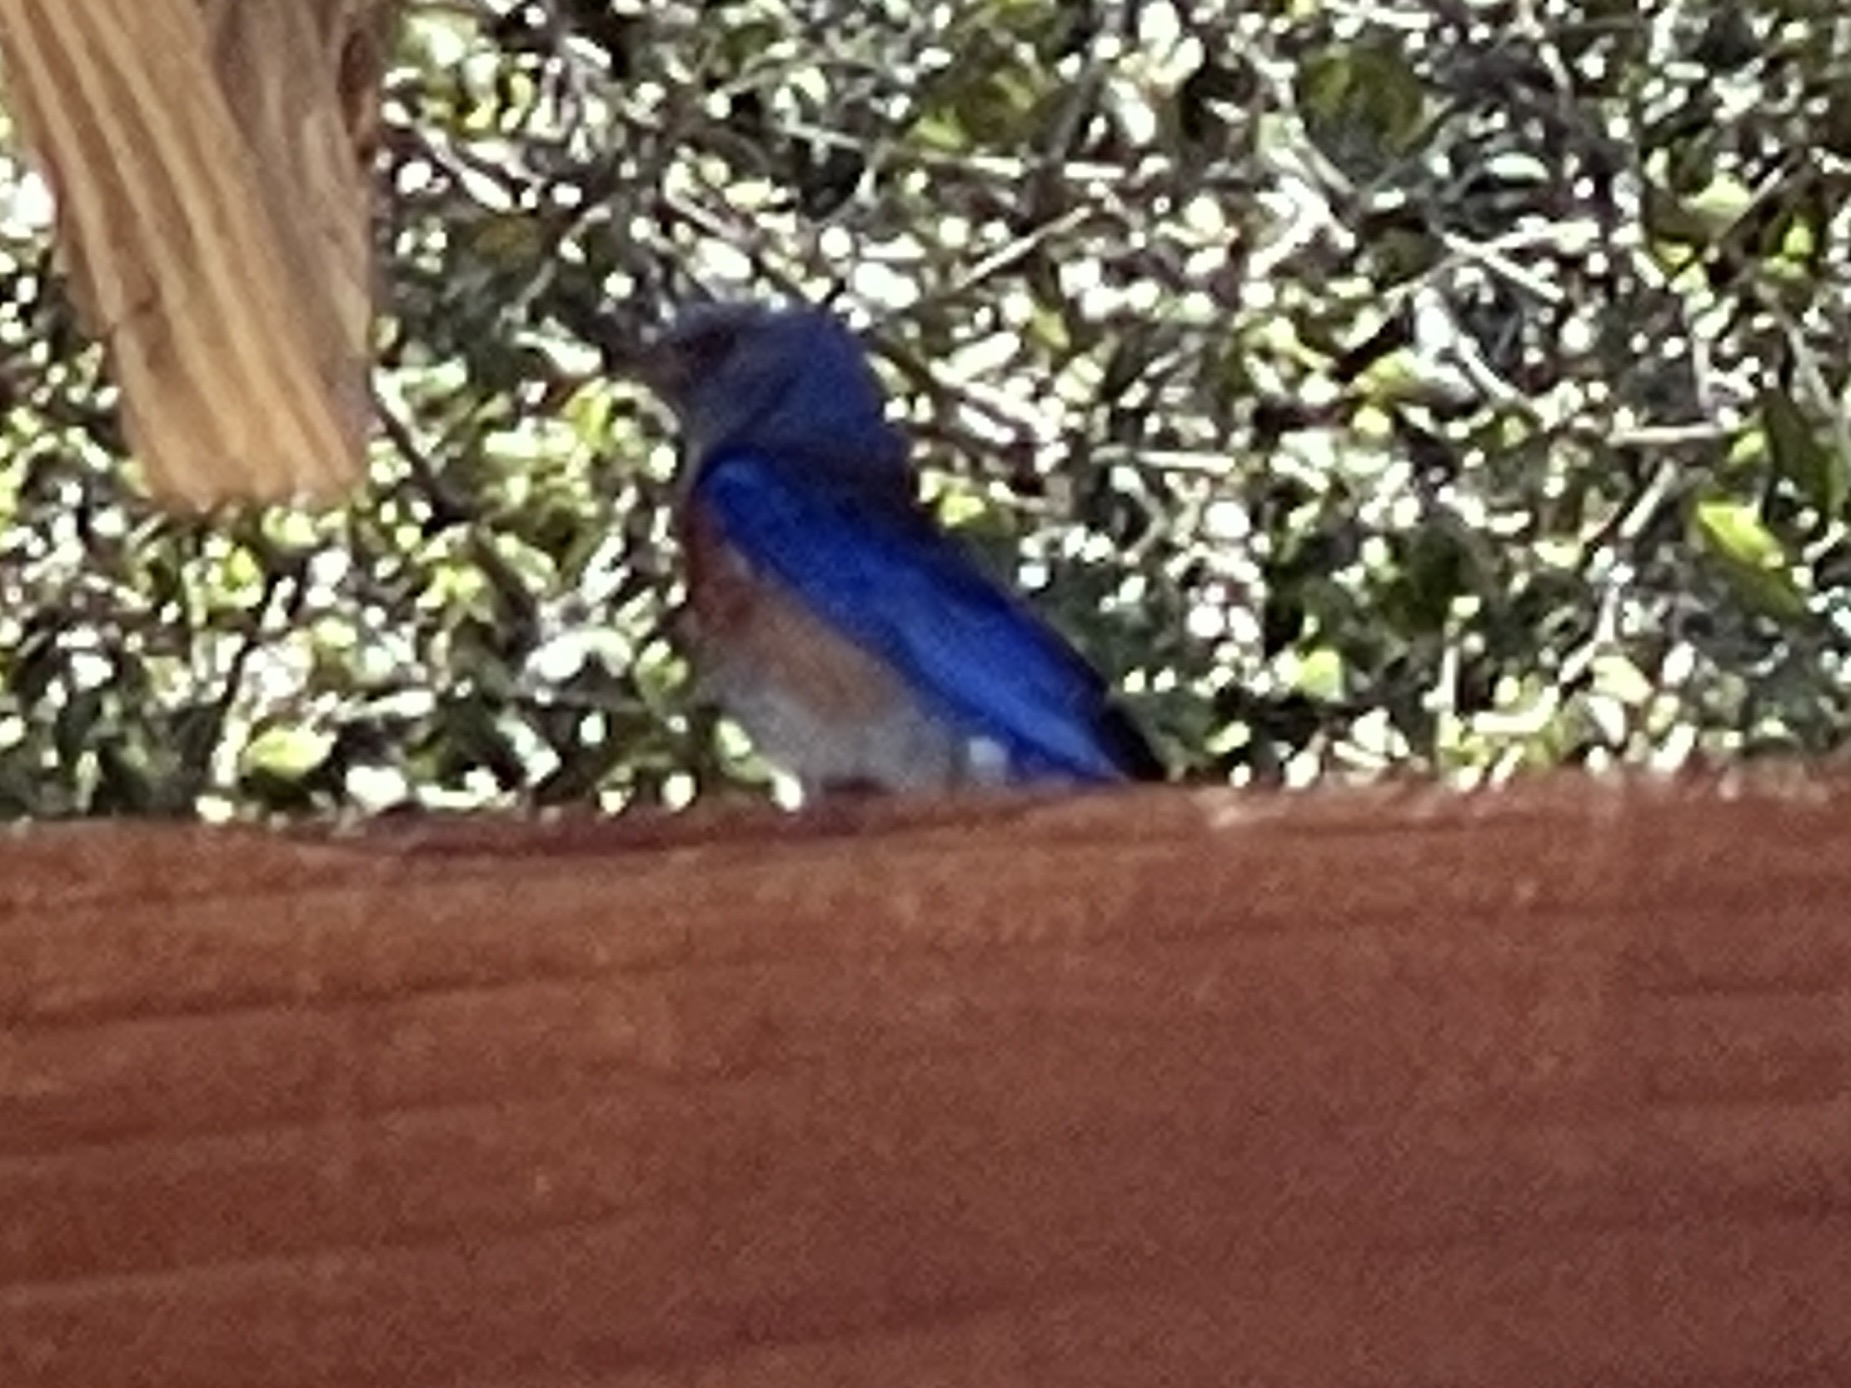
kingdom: Animalia
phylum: Chordata
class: Aves
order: Passeriformes
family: Turdidae
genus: Sialia
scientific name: Sialia mexicana
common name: Western bluebird
